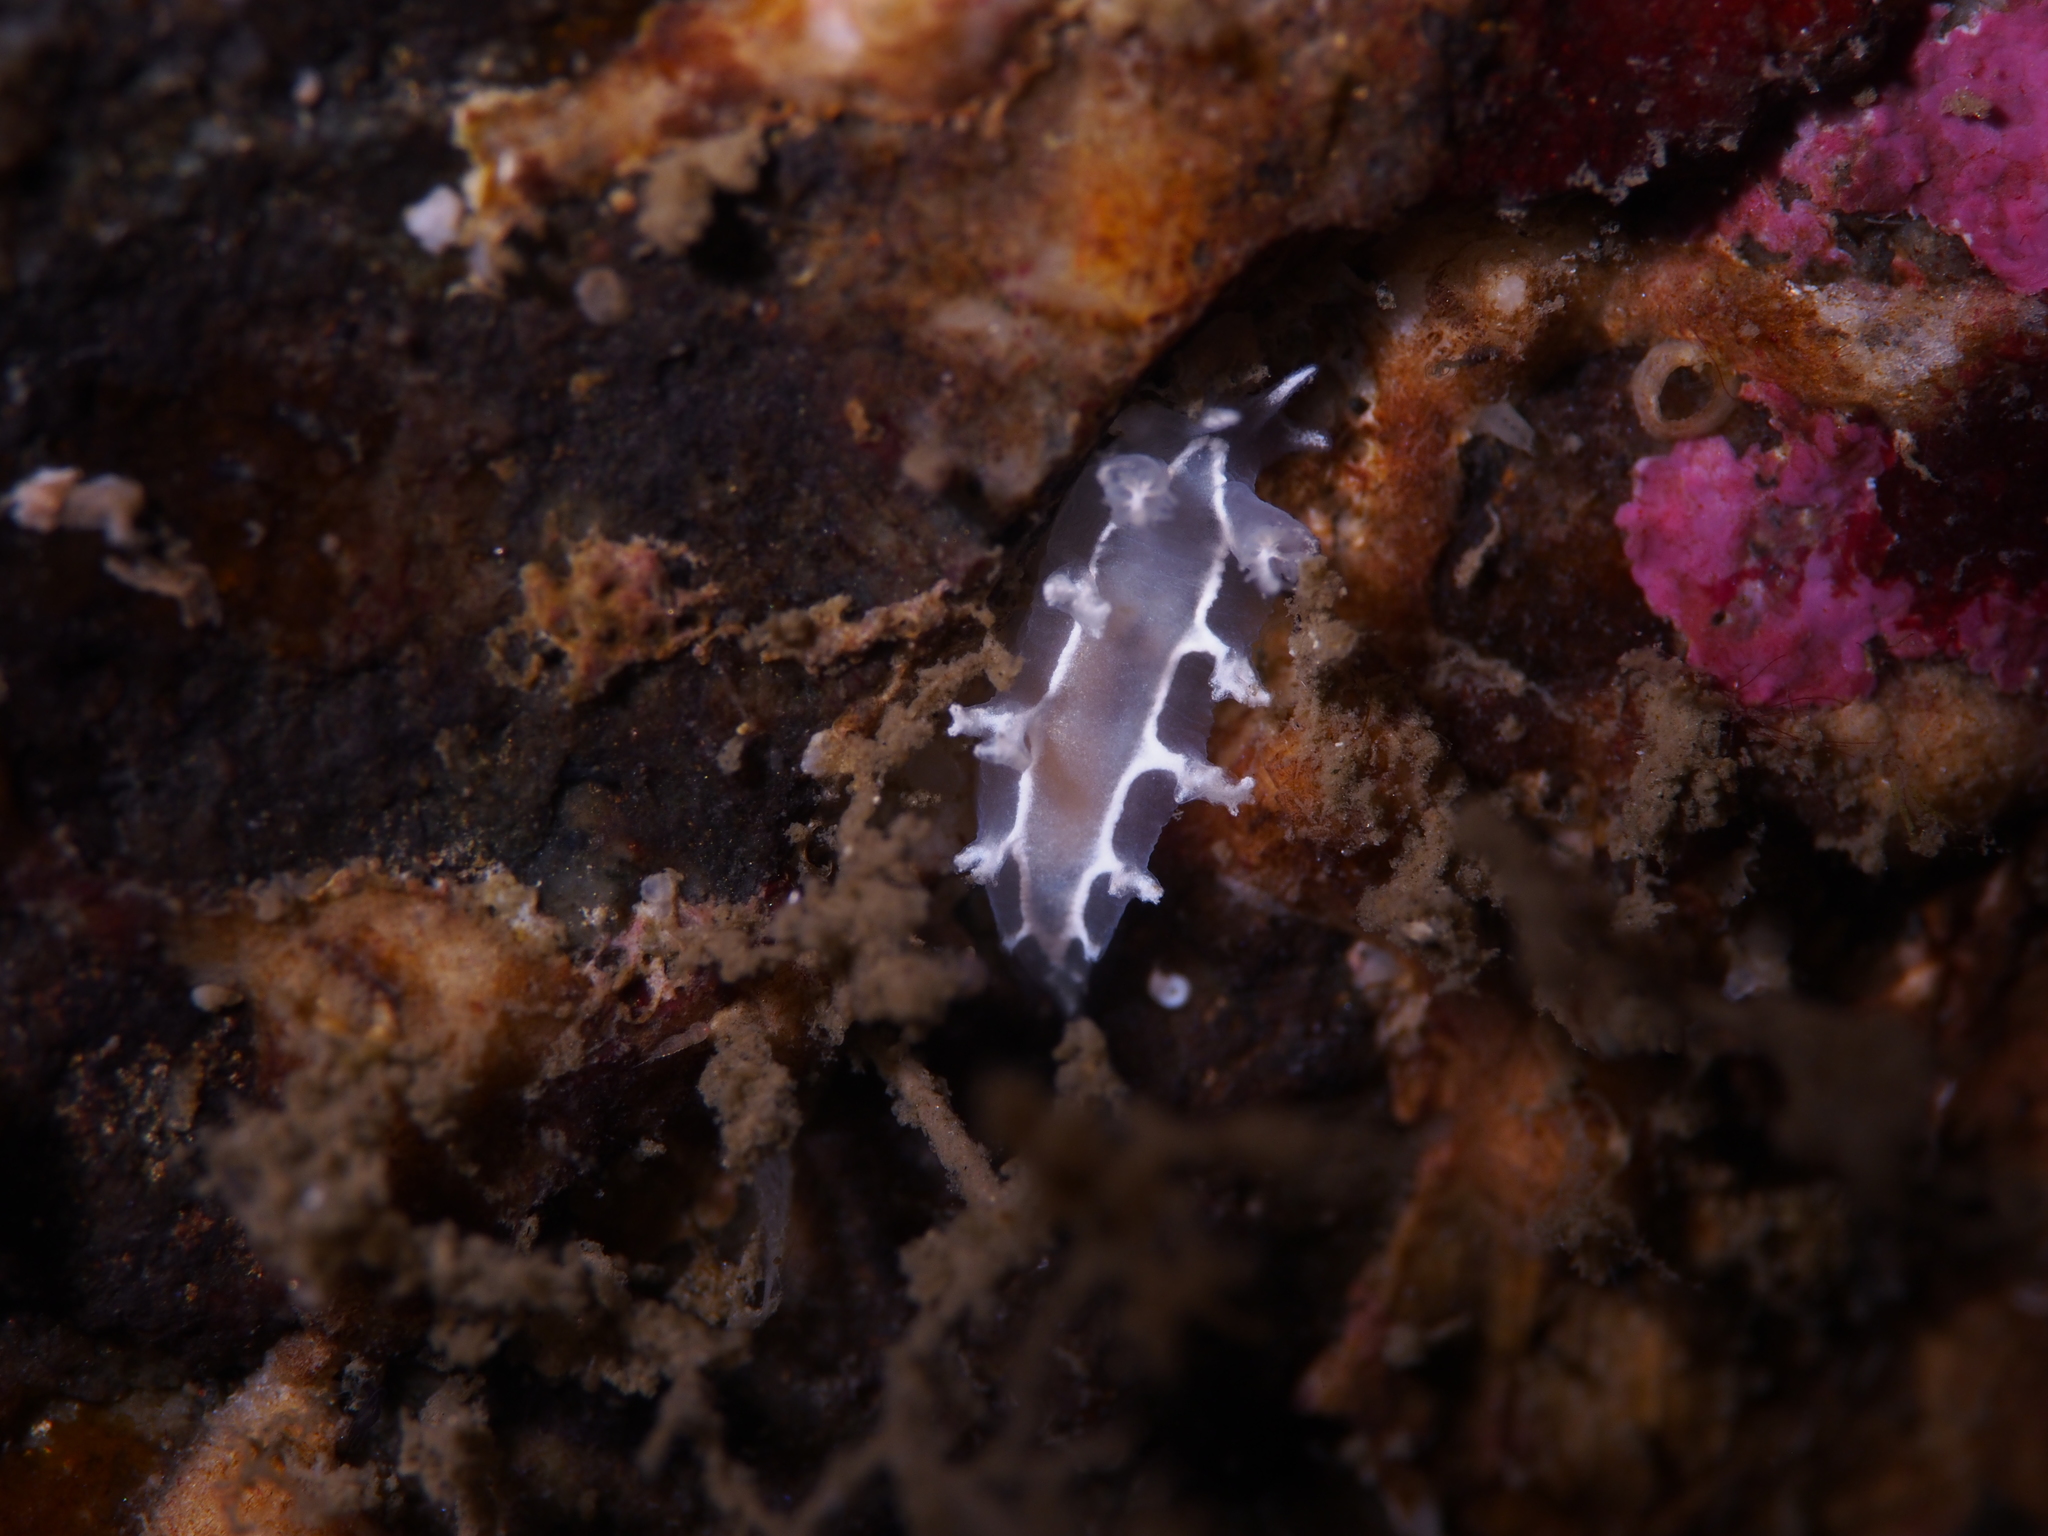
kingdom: Animalia
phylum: Mollusca
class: Gastropoda
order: Nudibranchia
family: Tritoniidae
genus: Duvaucelia
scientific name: Duvaucelia lineata
